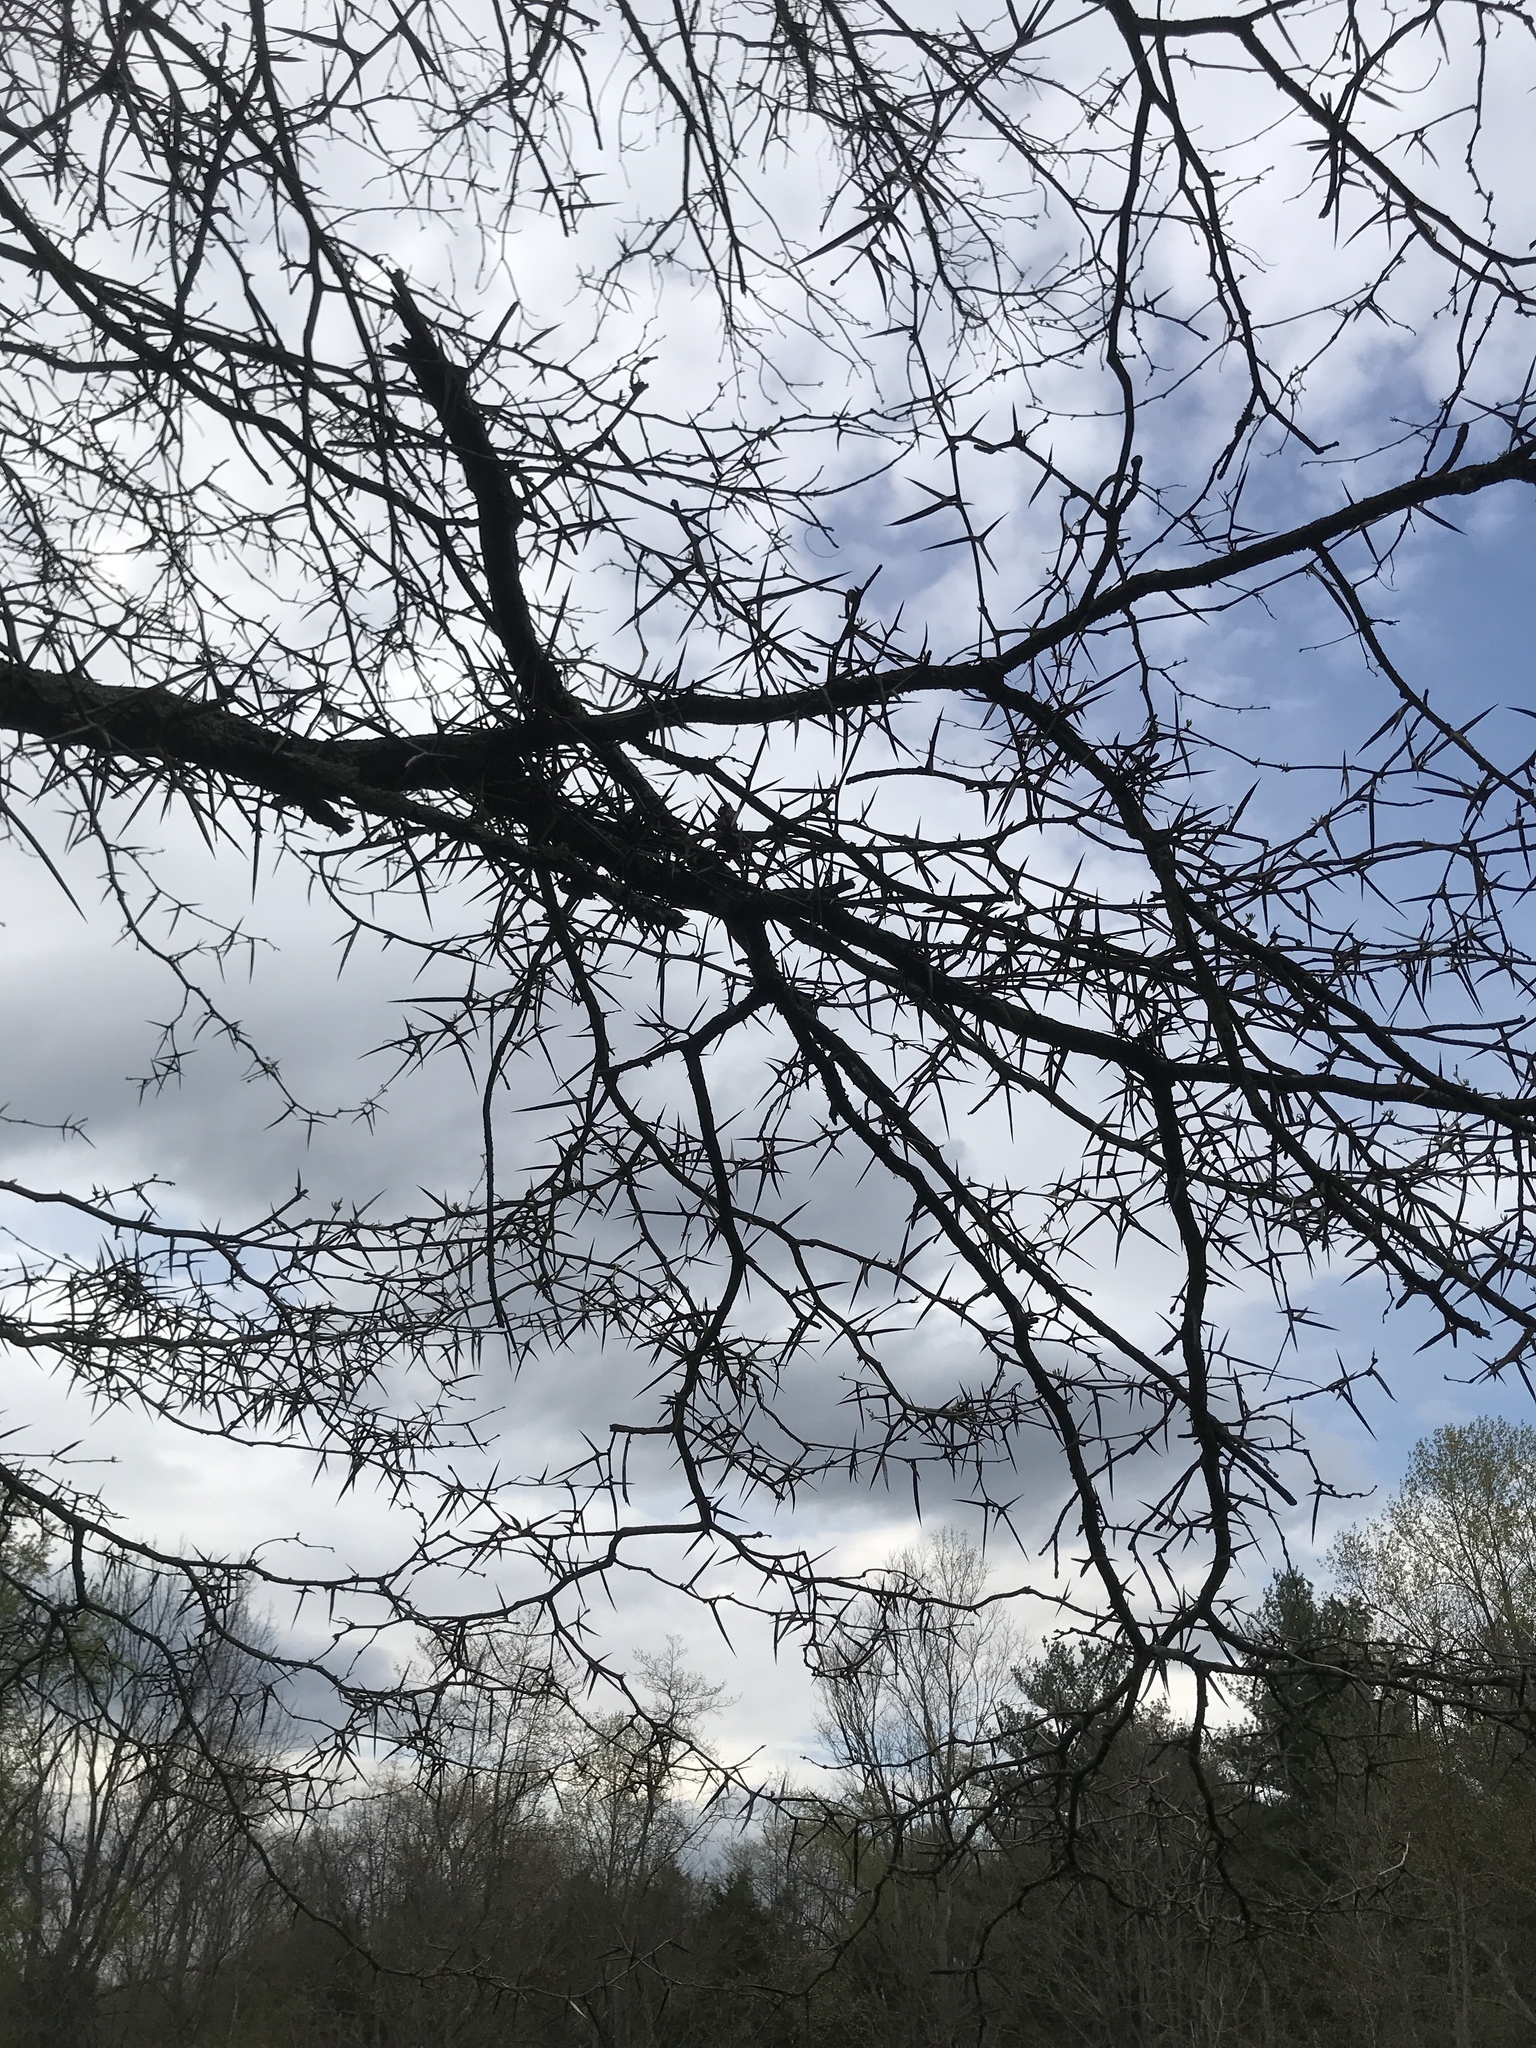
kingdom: Plantae
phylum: Tracheophyta
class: Magnoliopsida
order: Fabales
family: Fabaceae
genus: Gleditsia
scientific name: Gleditsia triacanthos
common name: Common honeylocust
